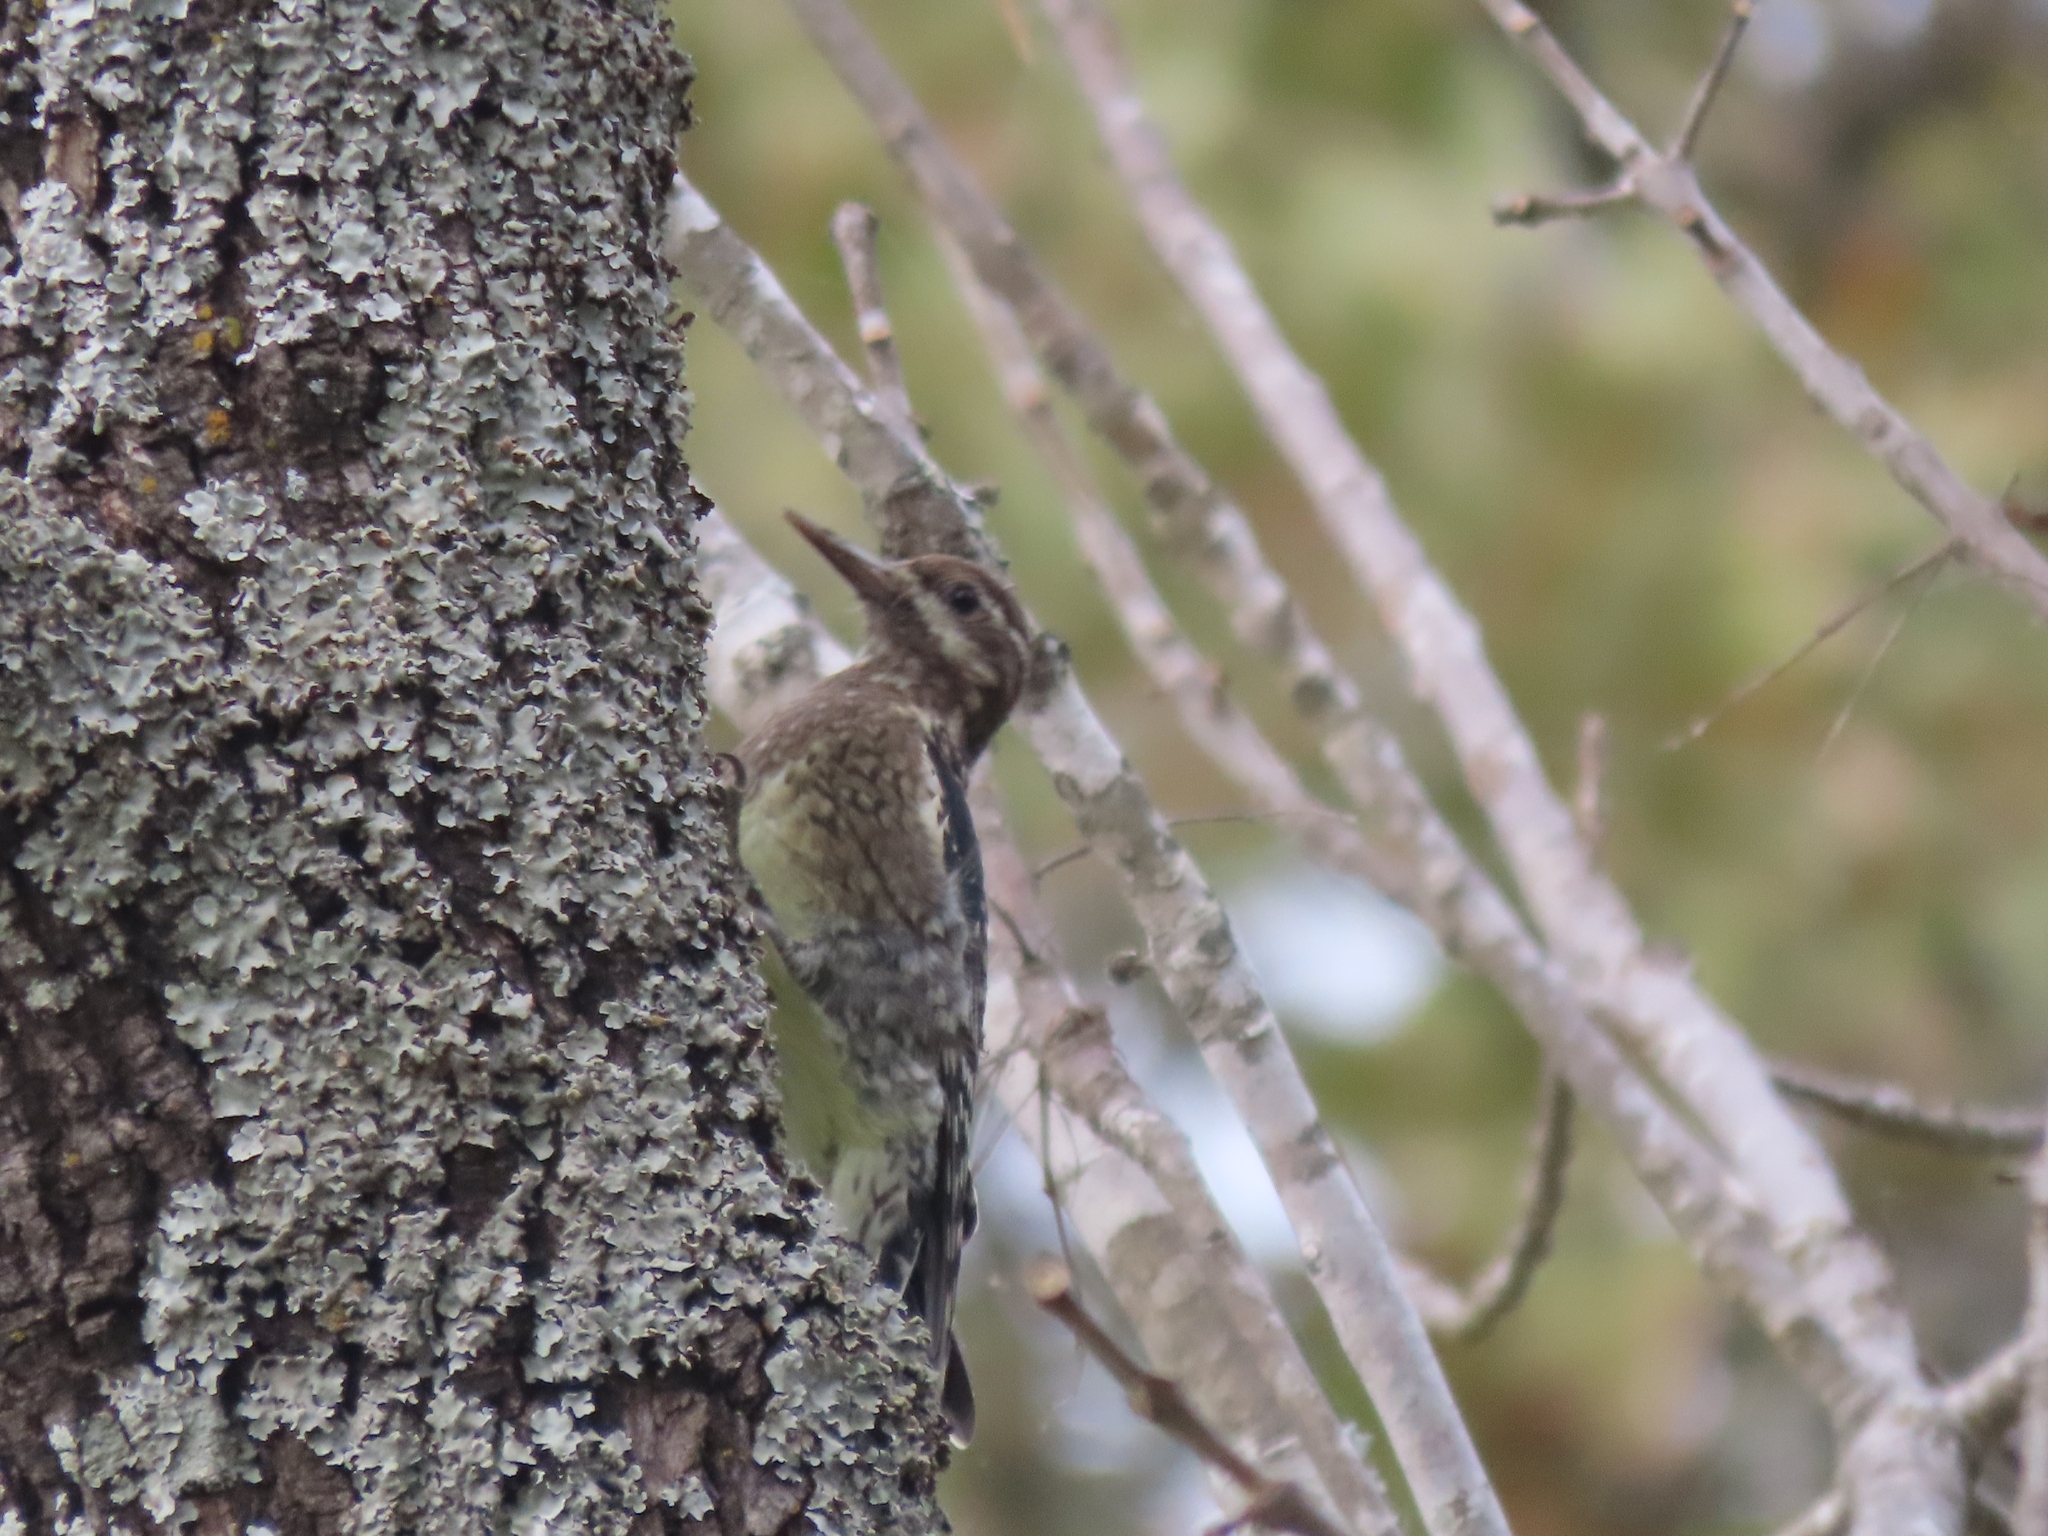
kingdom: Animalia
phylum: Chordata
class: Aves
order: Piciformes
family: Picidae
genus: Sphyrapicus
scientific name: Sphyrapicus varius
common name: Yellow-bellied sapsucker
